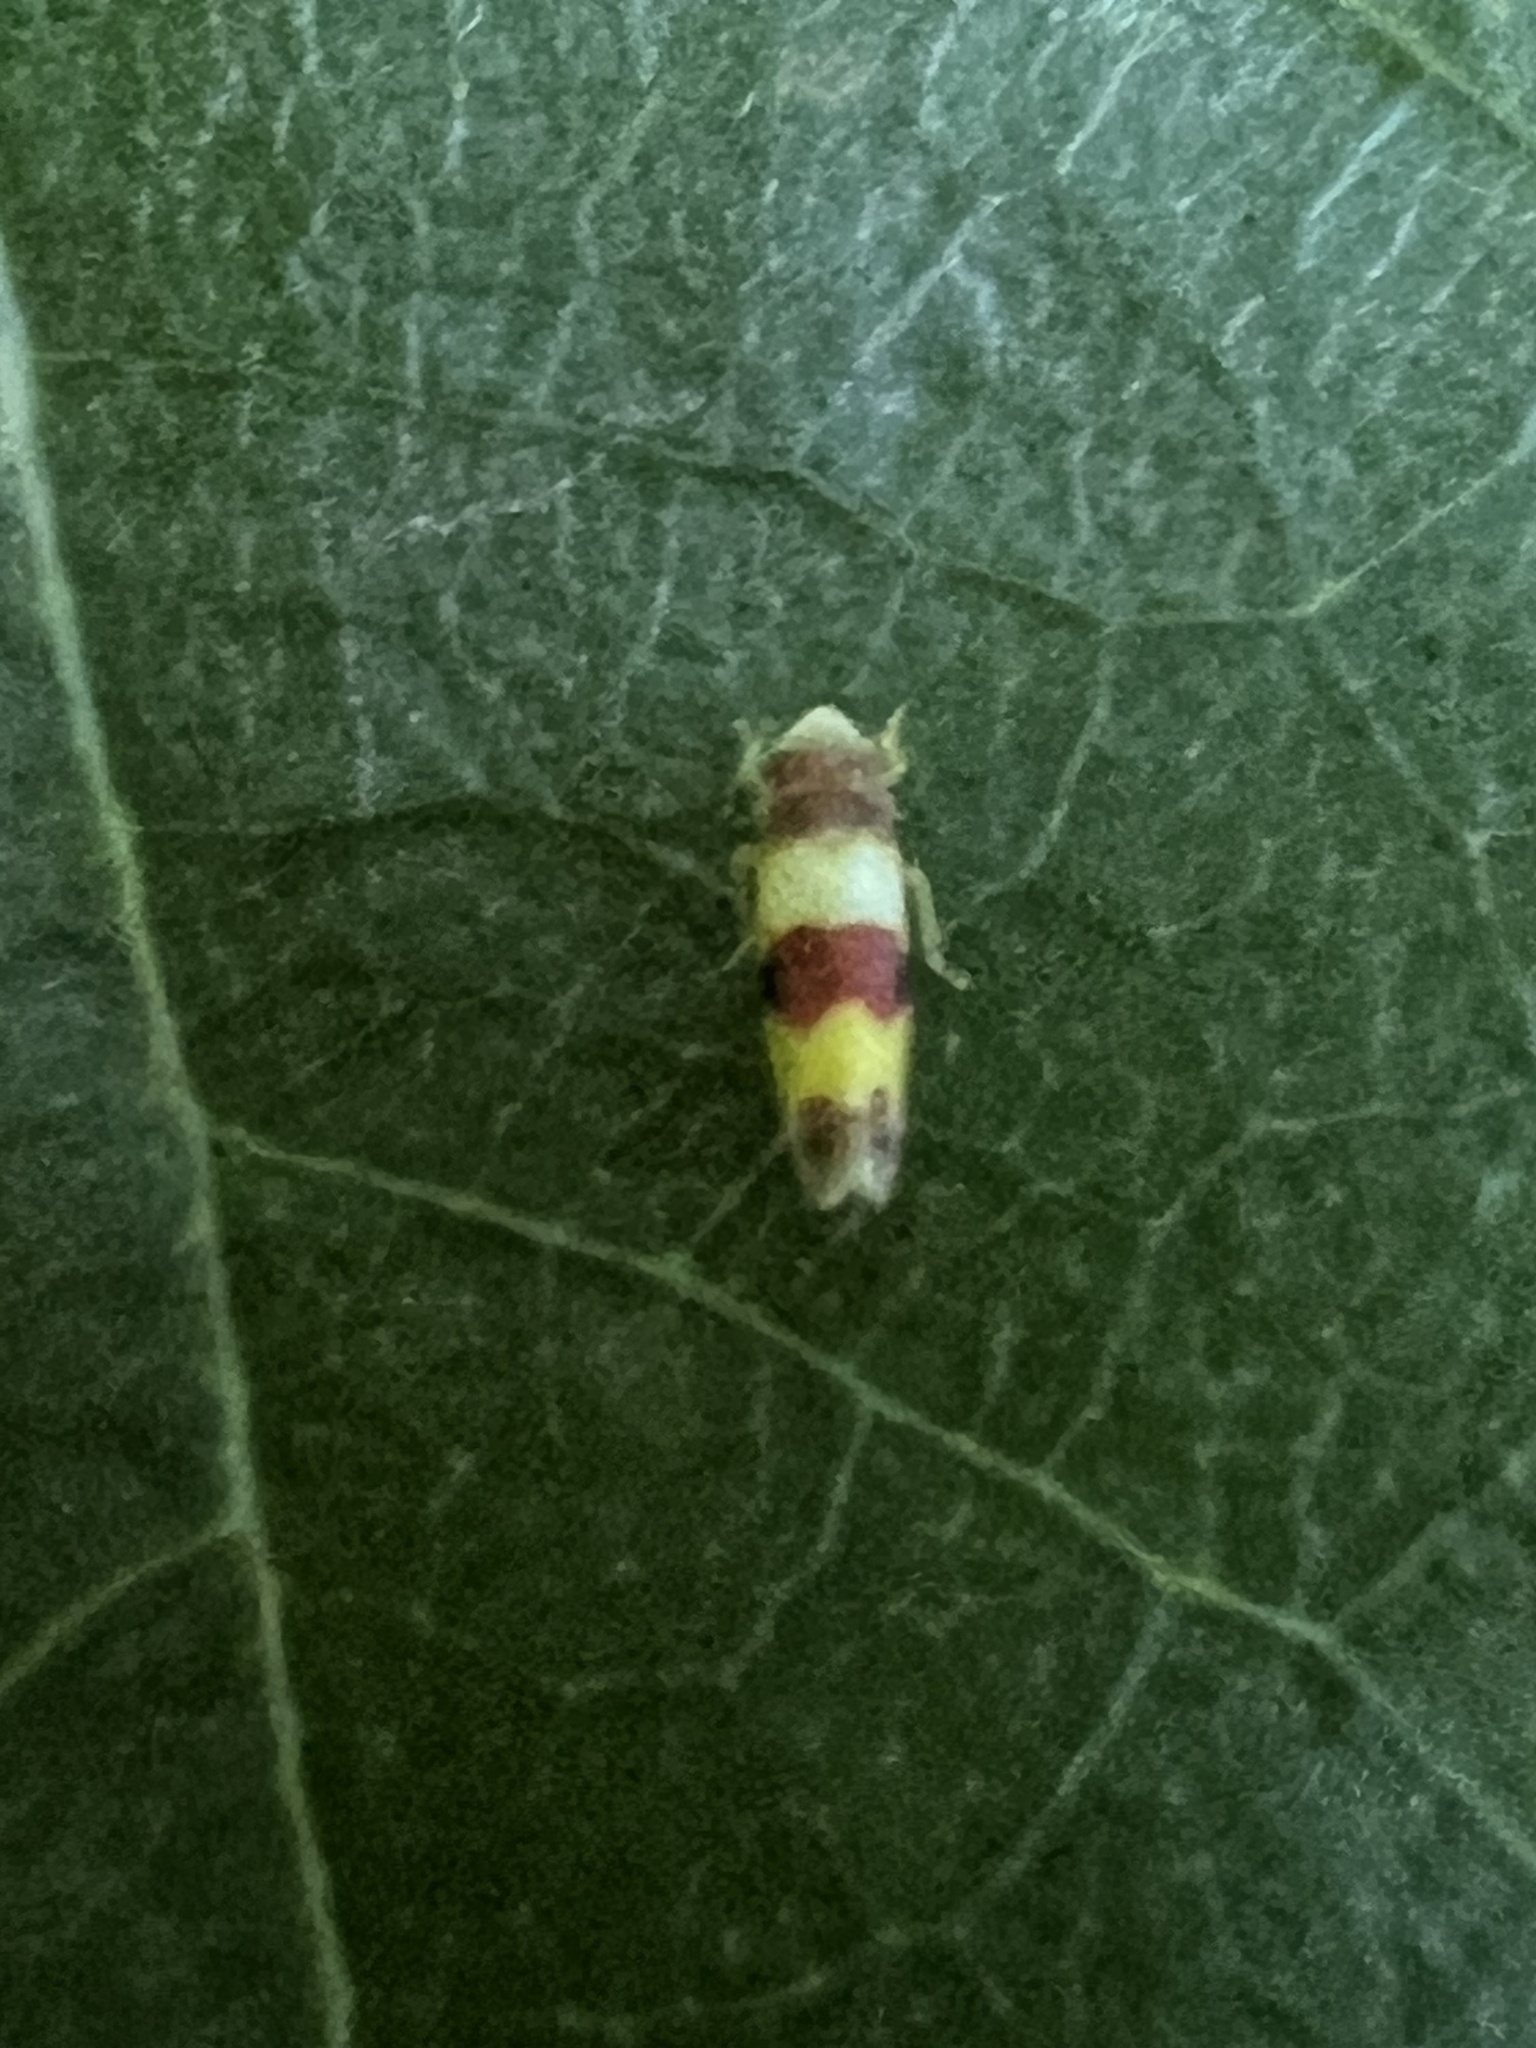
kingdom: Animalia
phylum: Arthropoda
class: Insecta
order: Hemiptera
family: Cicadellidae
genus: Erythroneura
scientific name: Erythroneura bistrata
